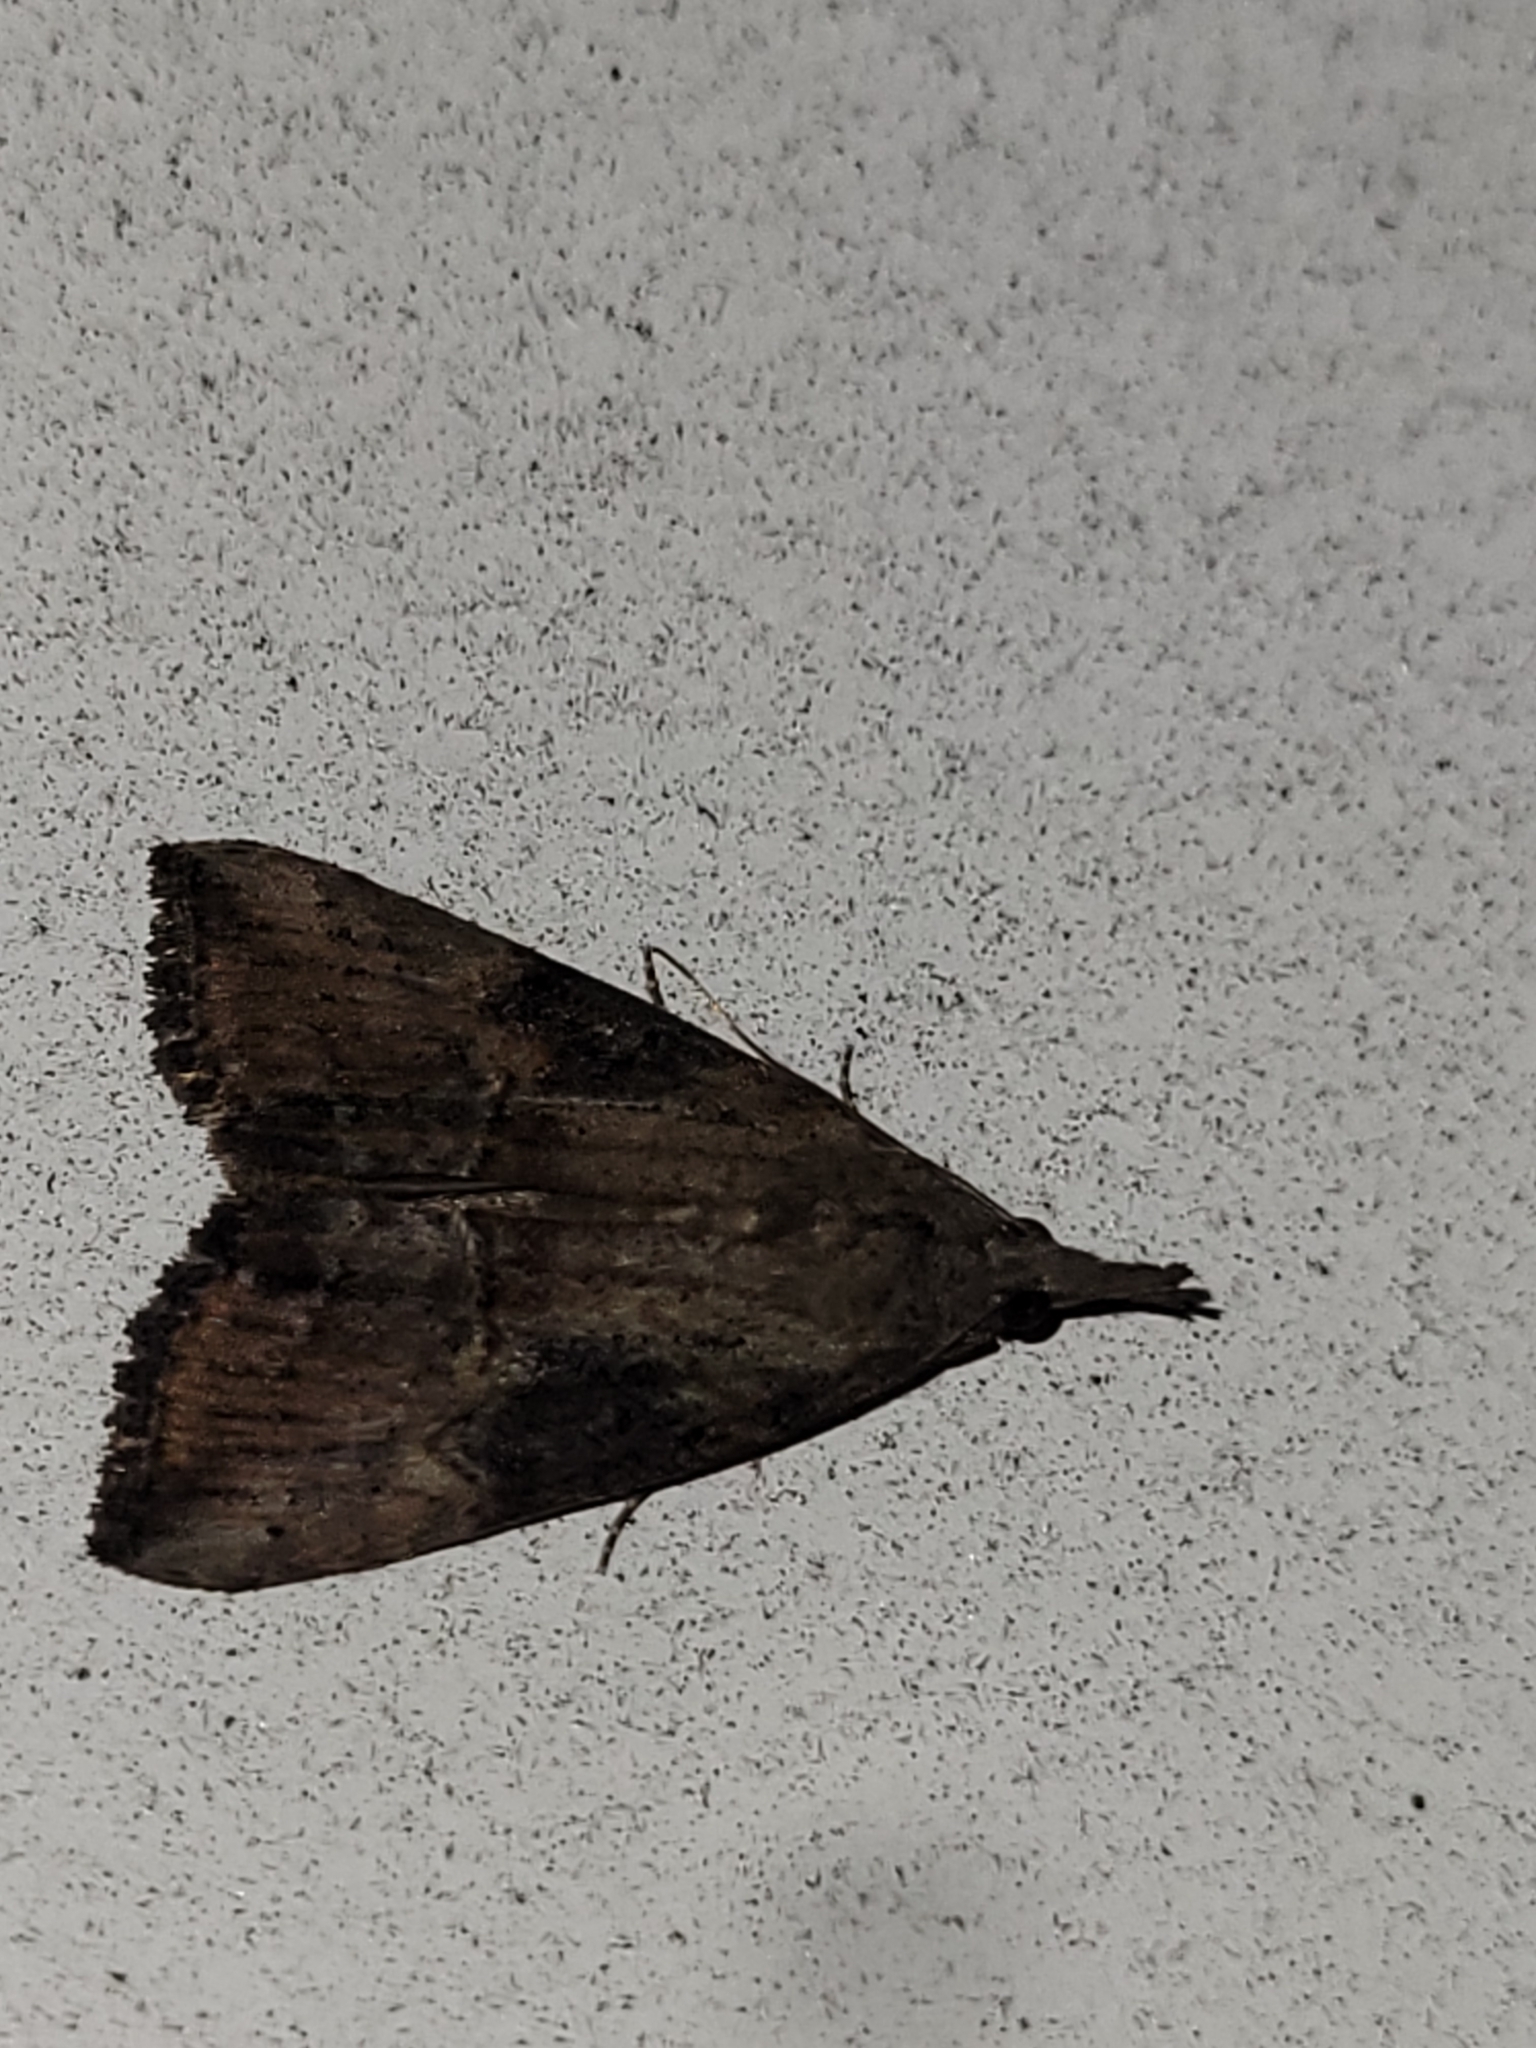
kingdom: Animalia
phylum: Arthropoda
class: Insecta
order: Lepidoptera
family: Erebidae
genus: Hypena
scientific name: Hypena scabra
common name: Green cloverworm
